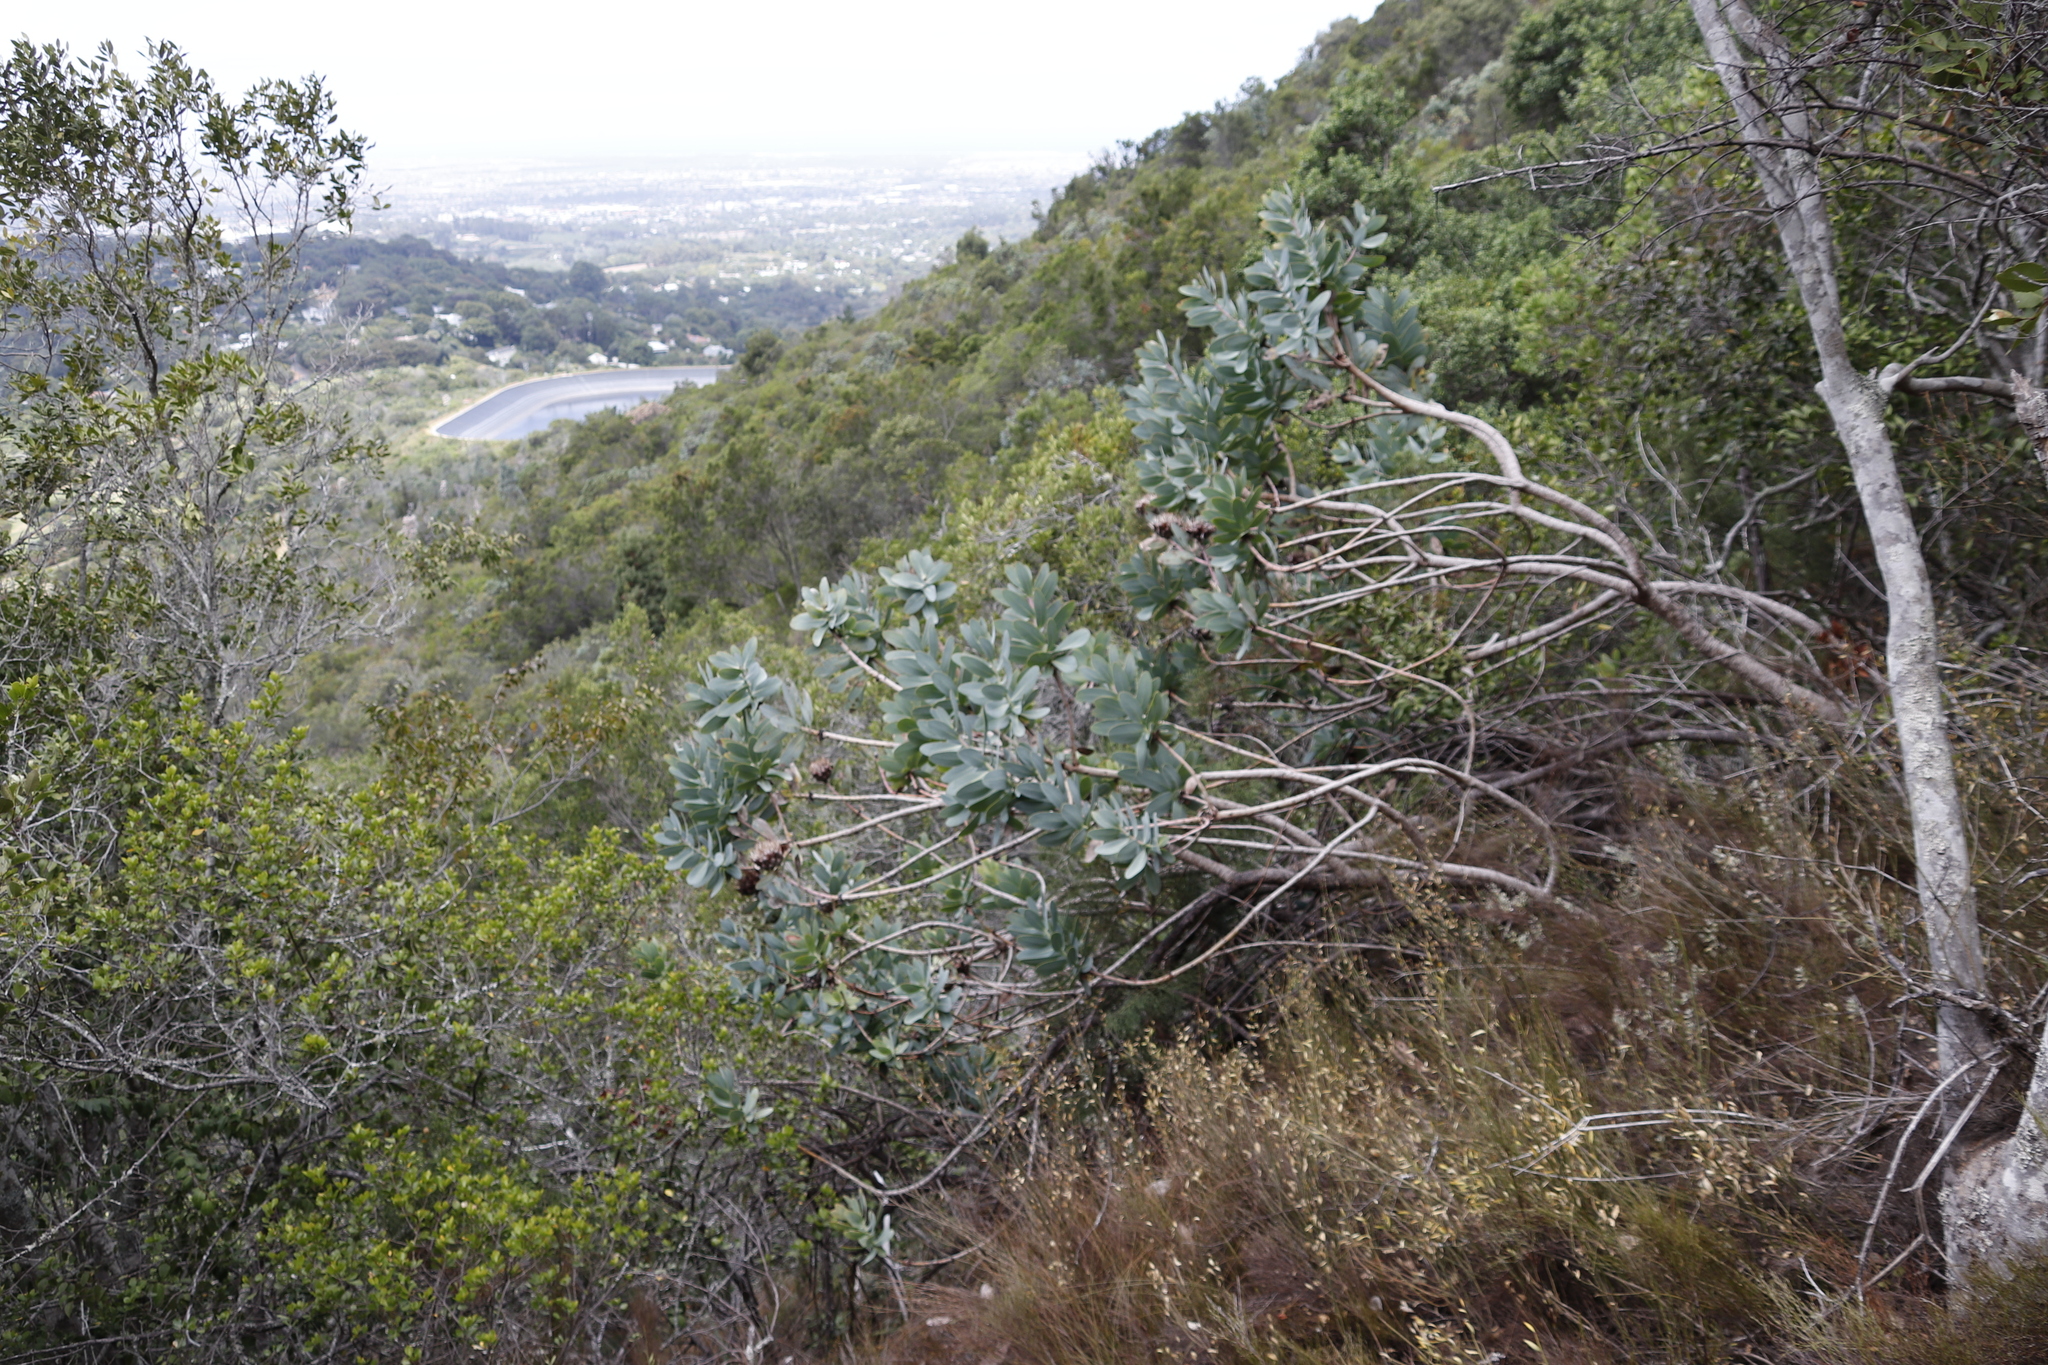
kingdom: Plantae
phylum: Tracheophyta
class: Magnoliopsida
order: Proteales
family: Proteaceae
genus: Protea
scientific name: Protea nitida
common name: Tree protea
